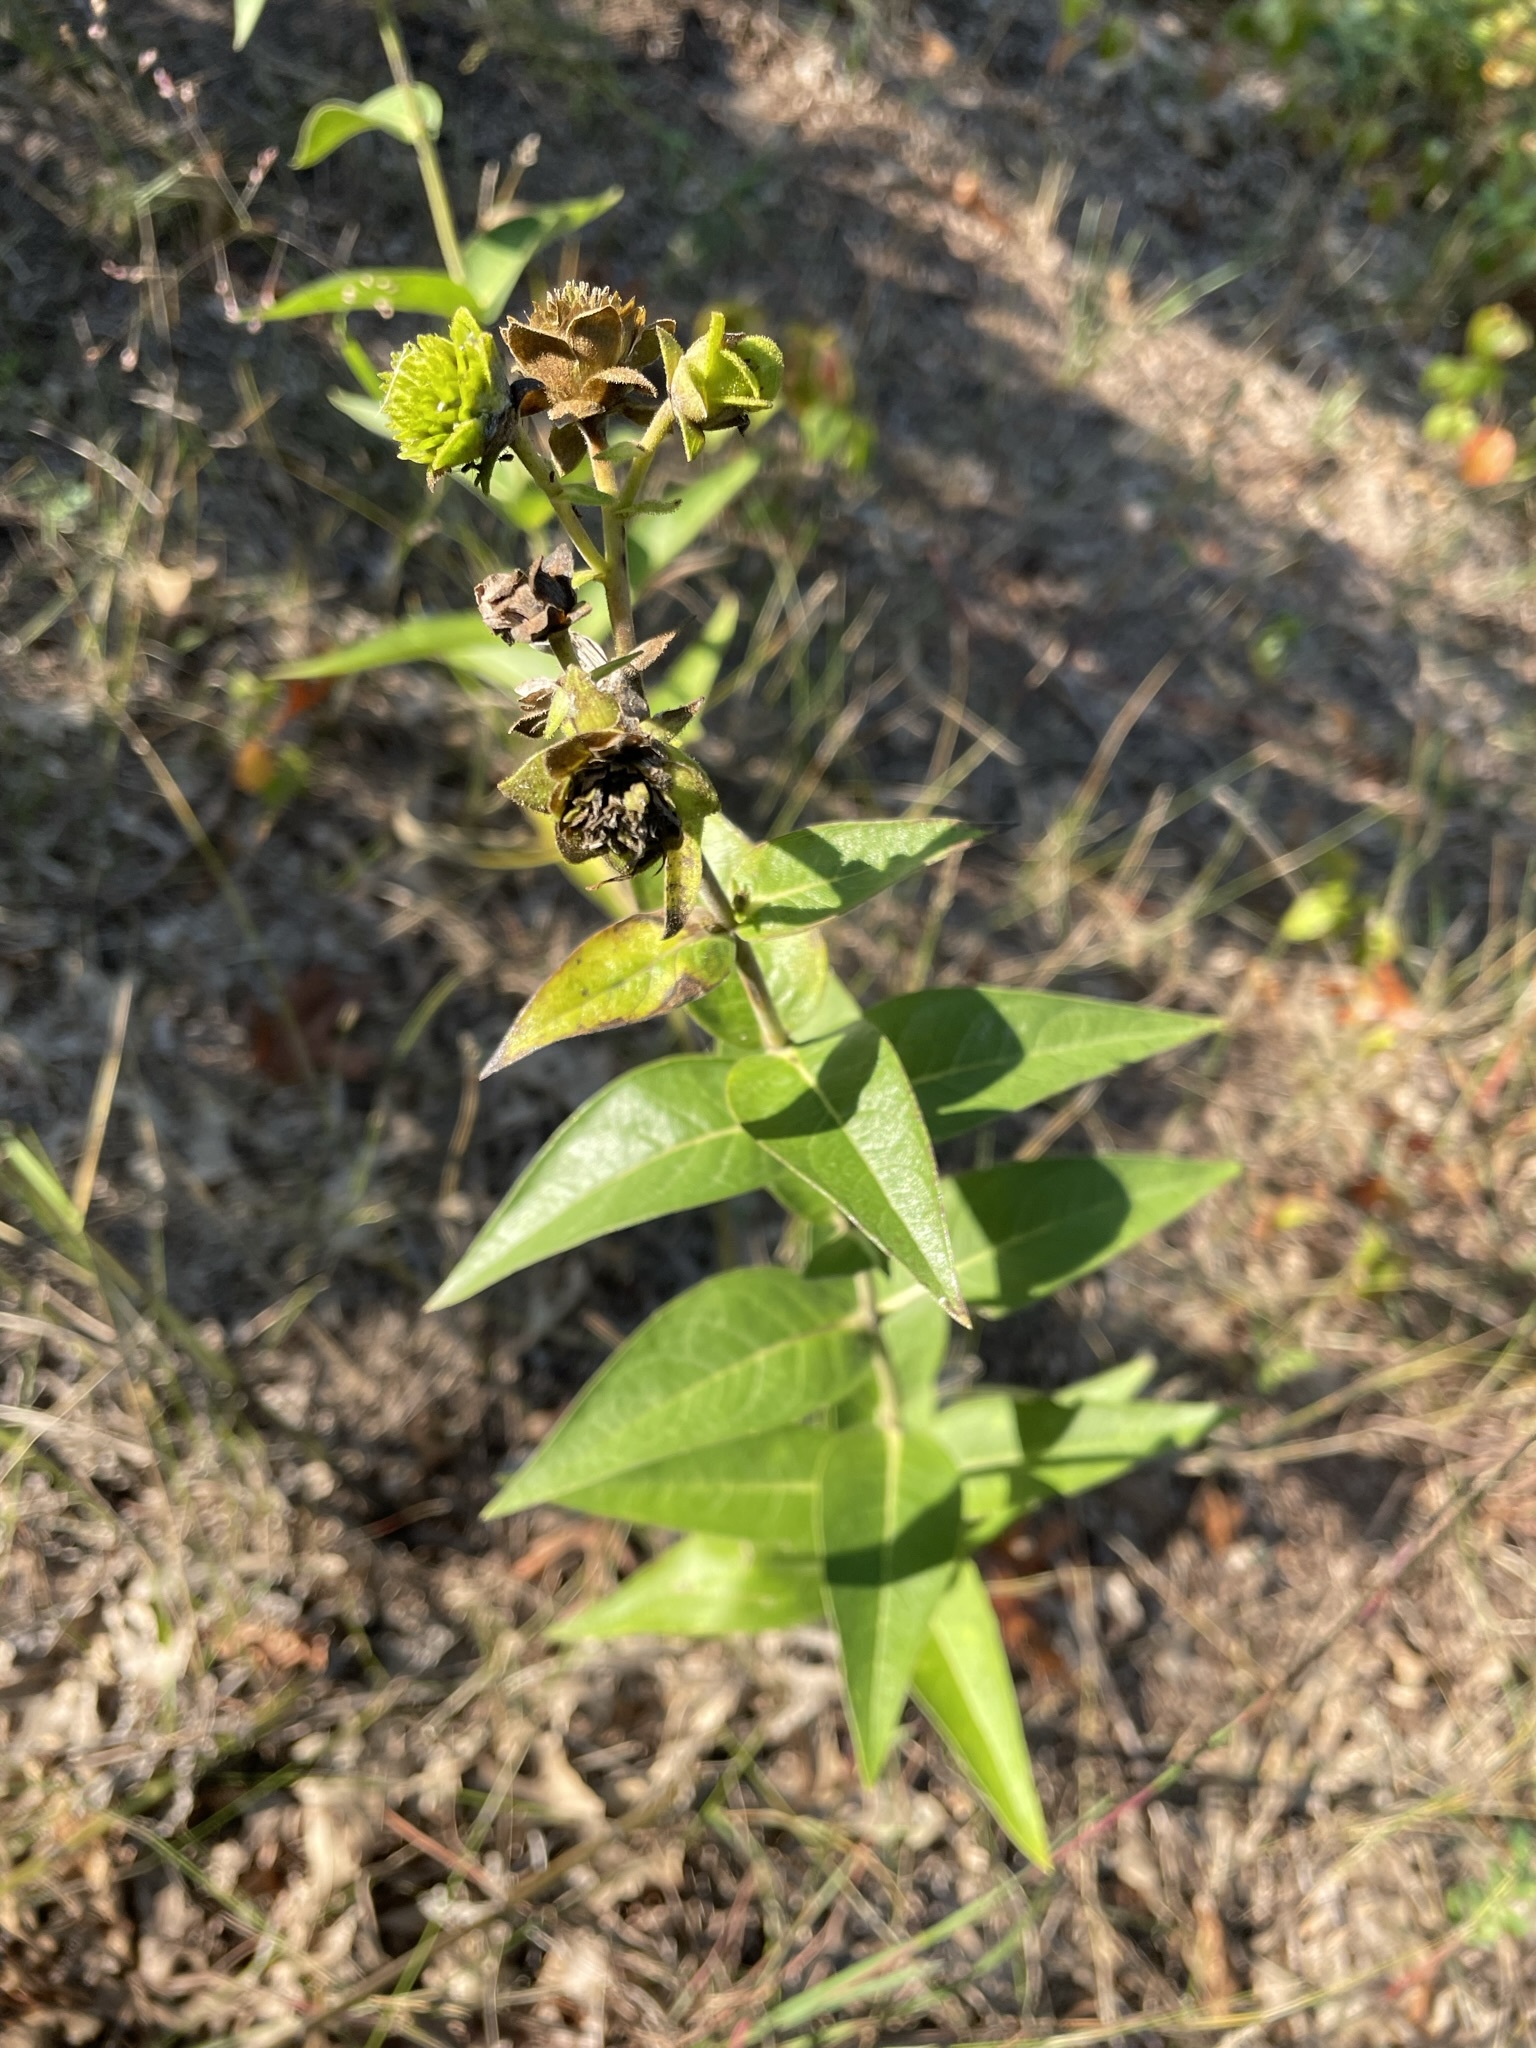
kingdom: Plantae
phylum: Tracheophyta
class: Magnoliopsida
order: Asterales
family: Asteraceae
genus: Silphium
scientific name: Silphium integrifolium
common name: Whole-leaf rosinweed
